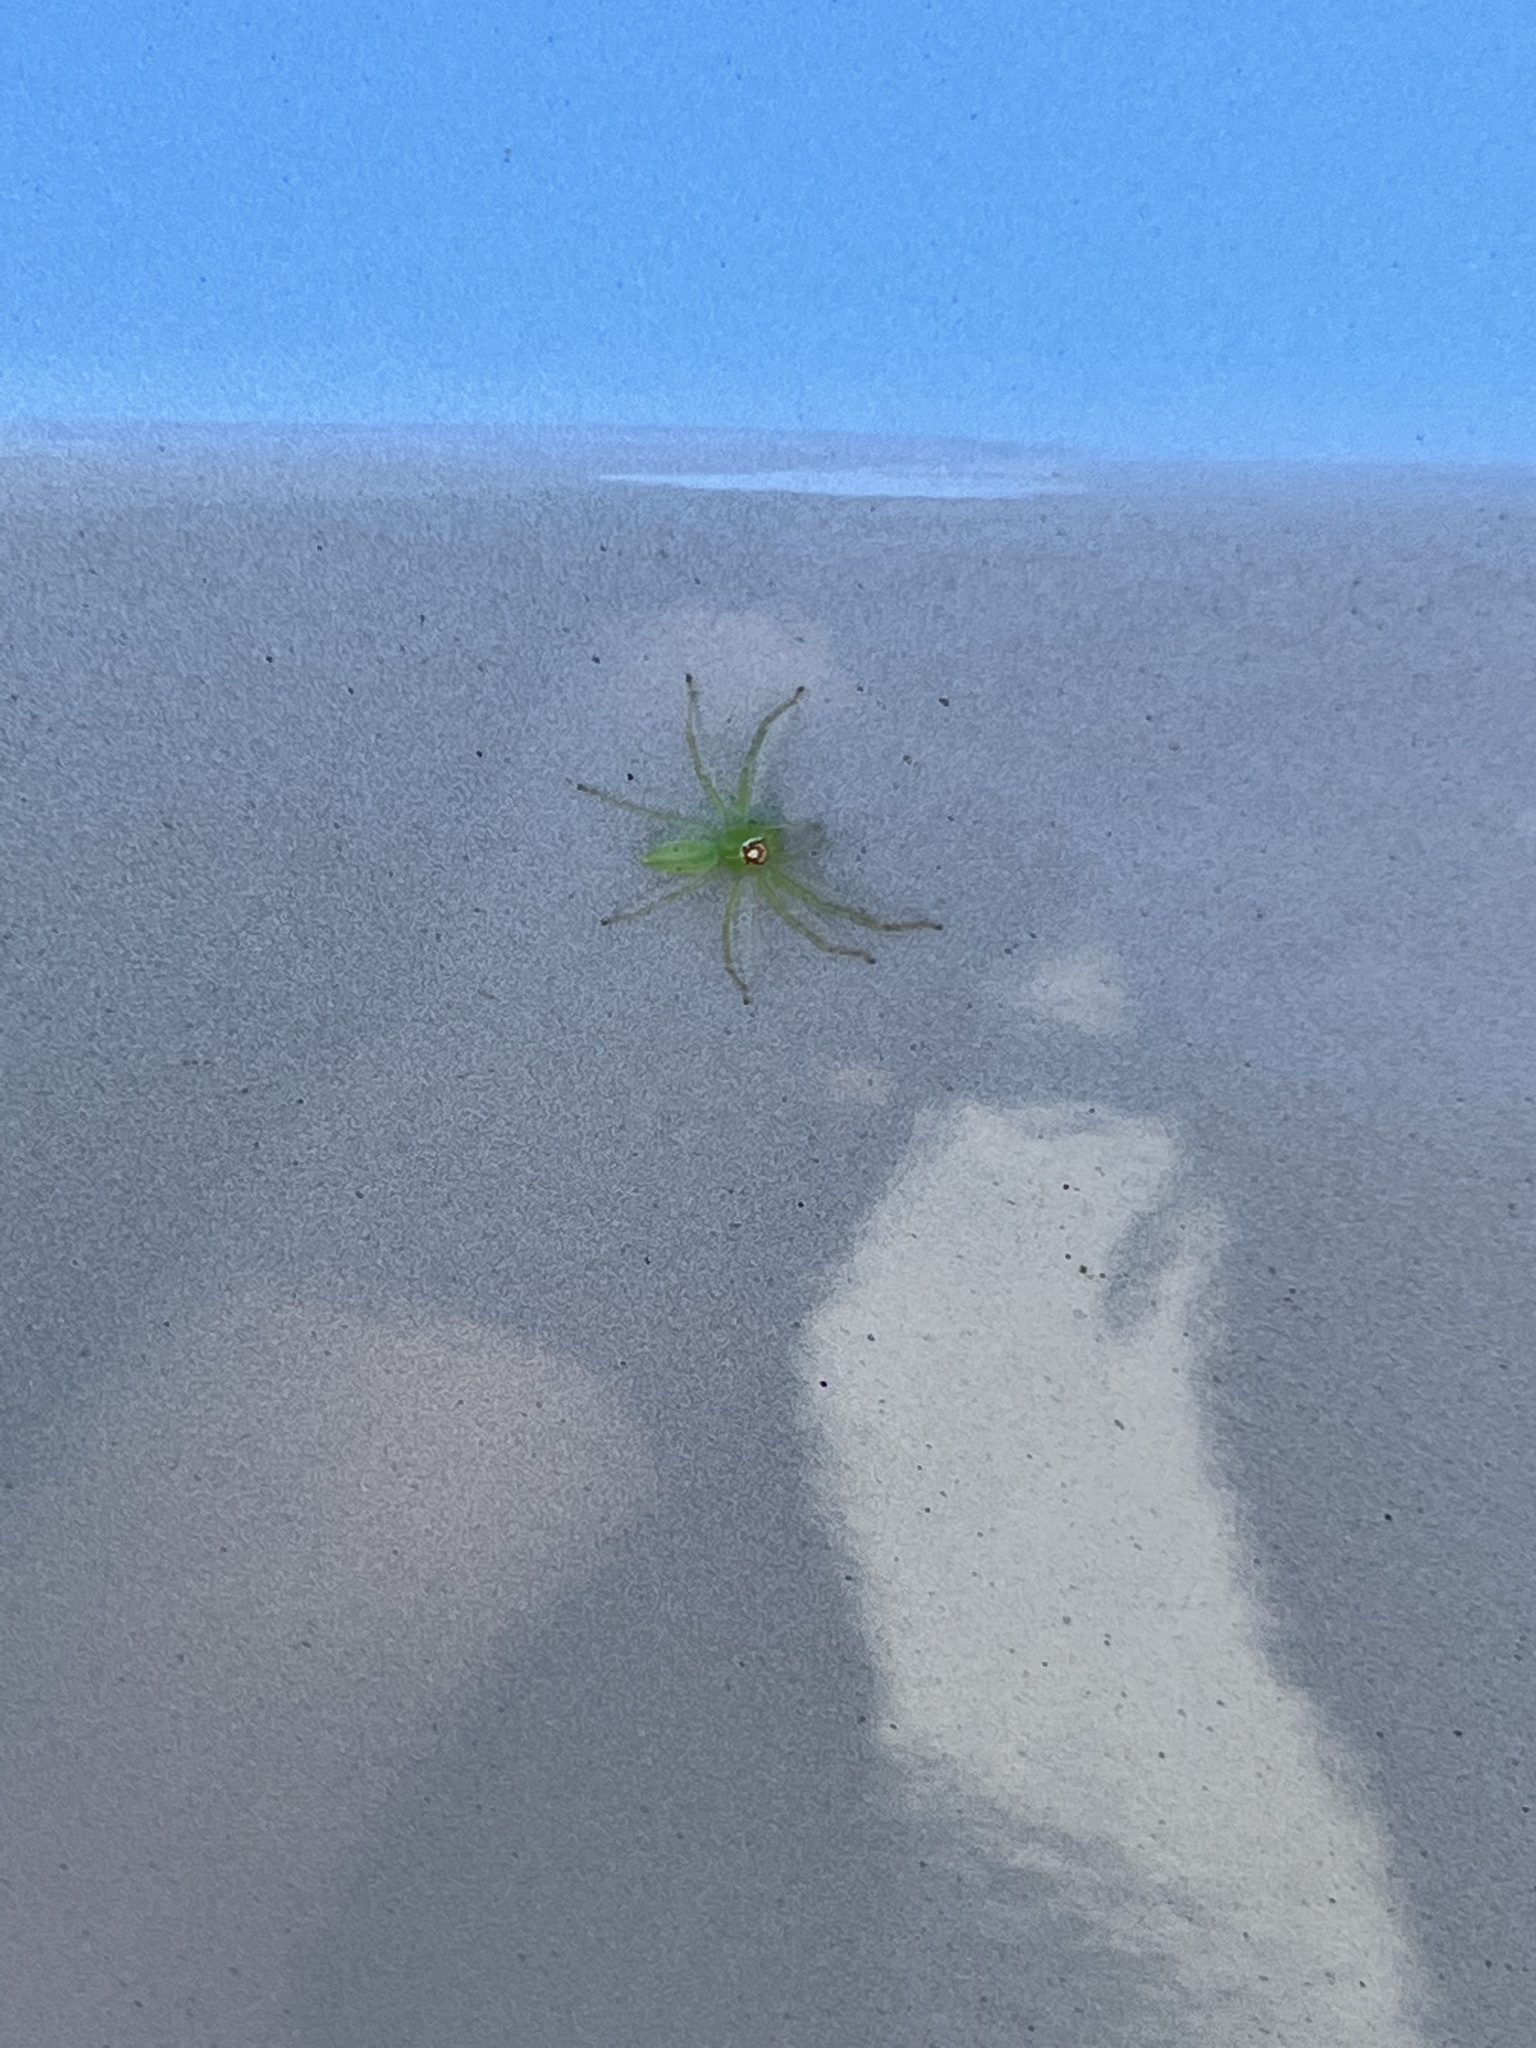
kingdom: Animalia
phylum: Arthropoda
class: Arachnida
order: Araneae
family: Salticidae
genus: Lyssomanes
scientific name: Lyssomanes viridis
